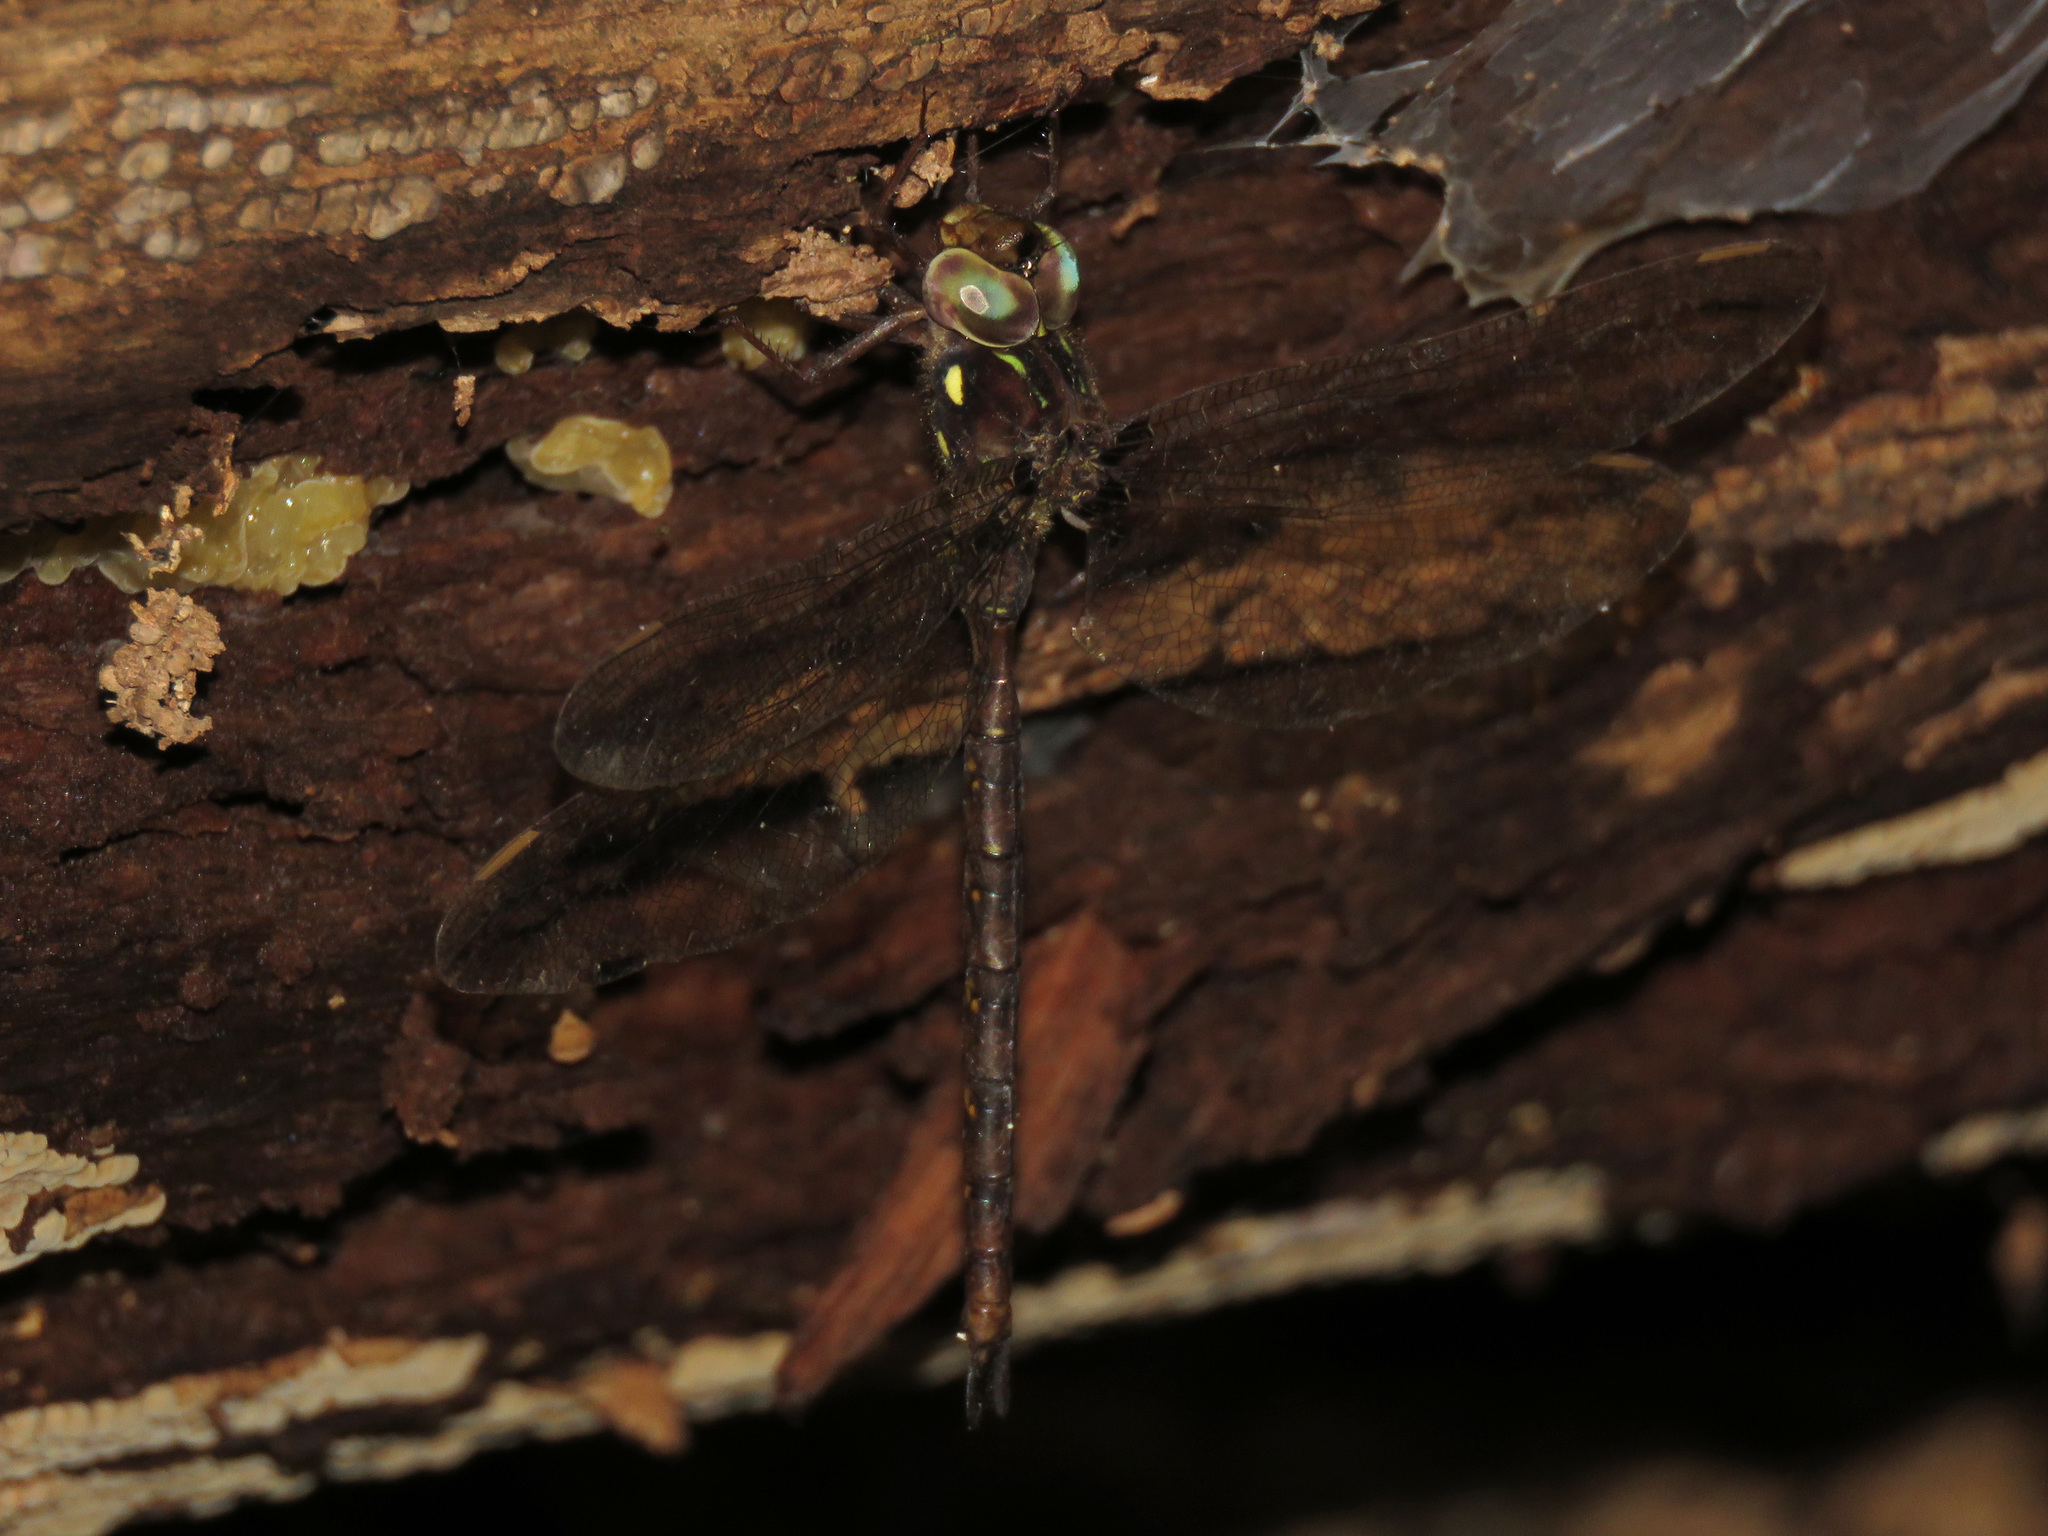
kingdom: Animalia
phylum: Arthropoda
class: Insecta
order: Odonata
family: Aeshnidae
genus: Boyeria
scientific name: Boyeria vinosa
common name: Fawn darner
